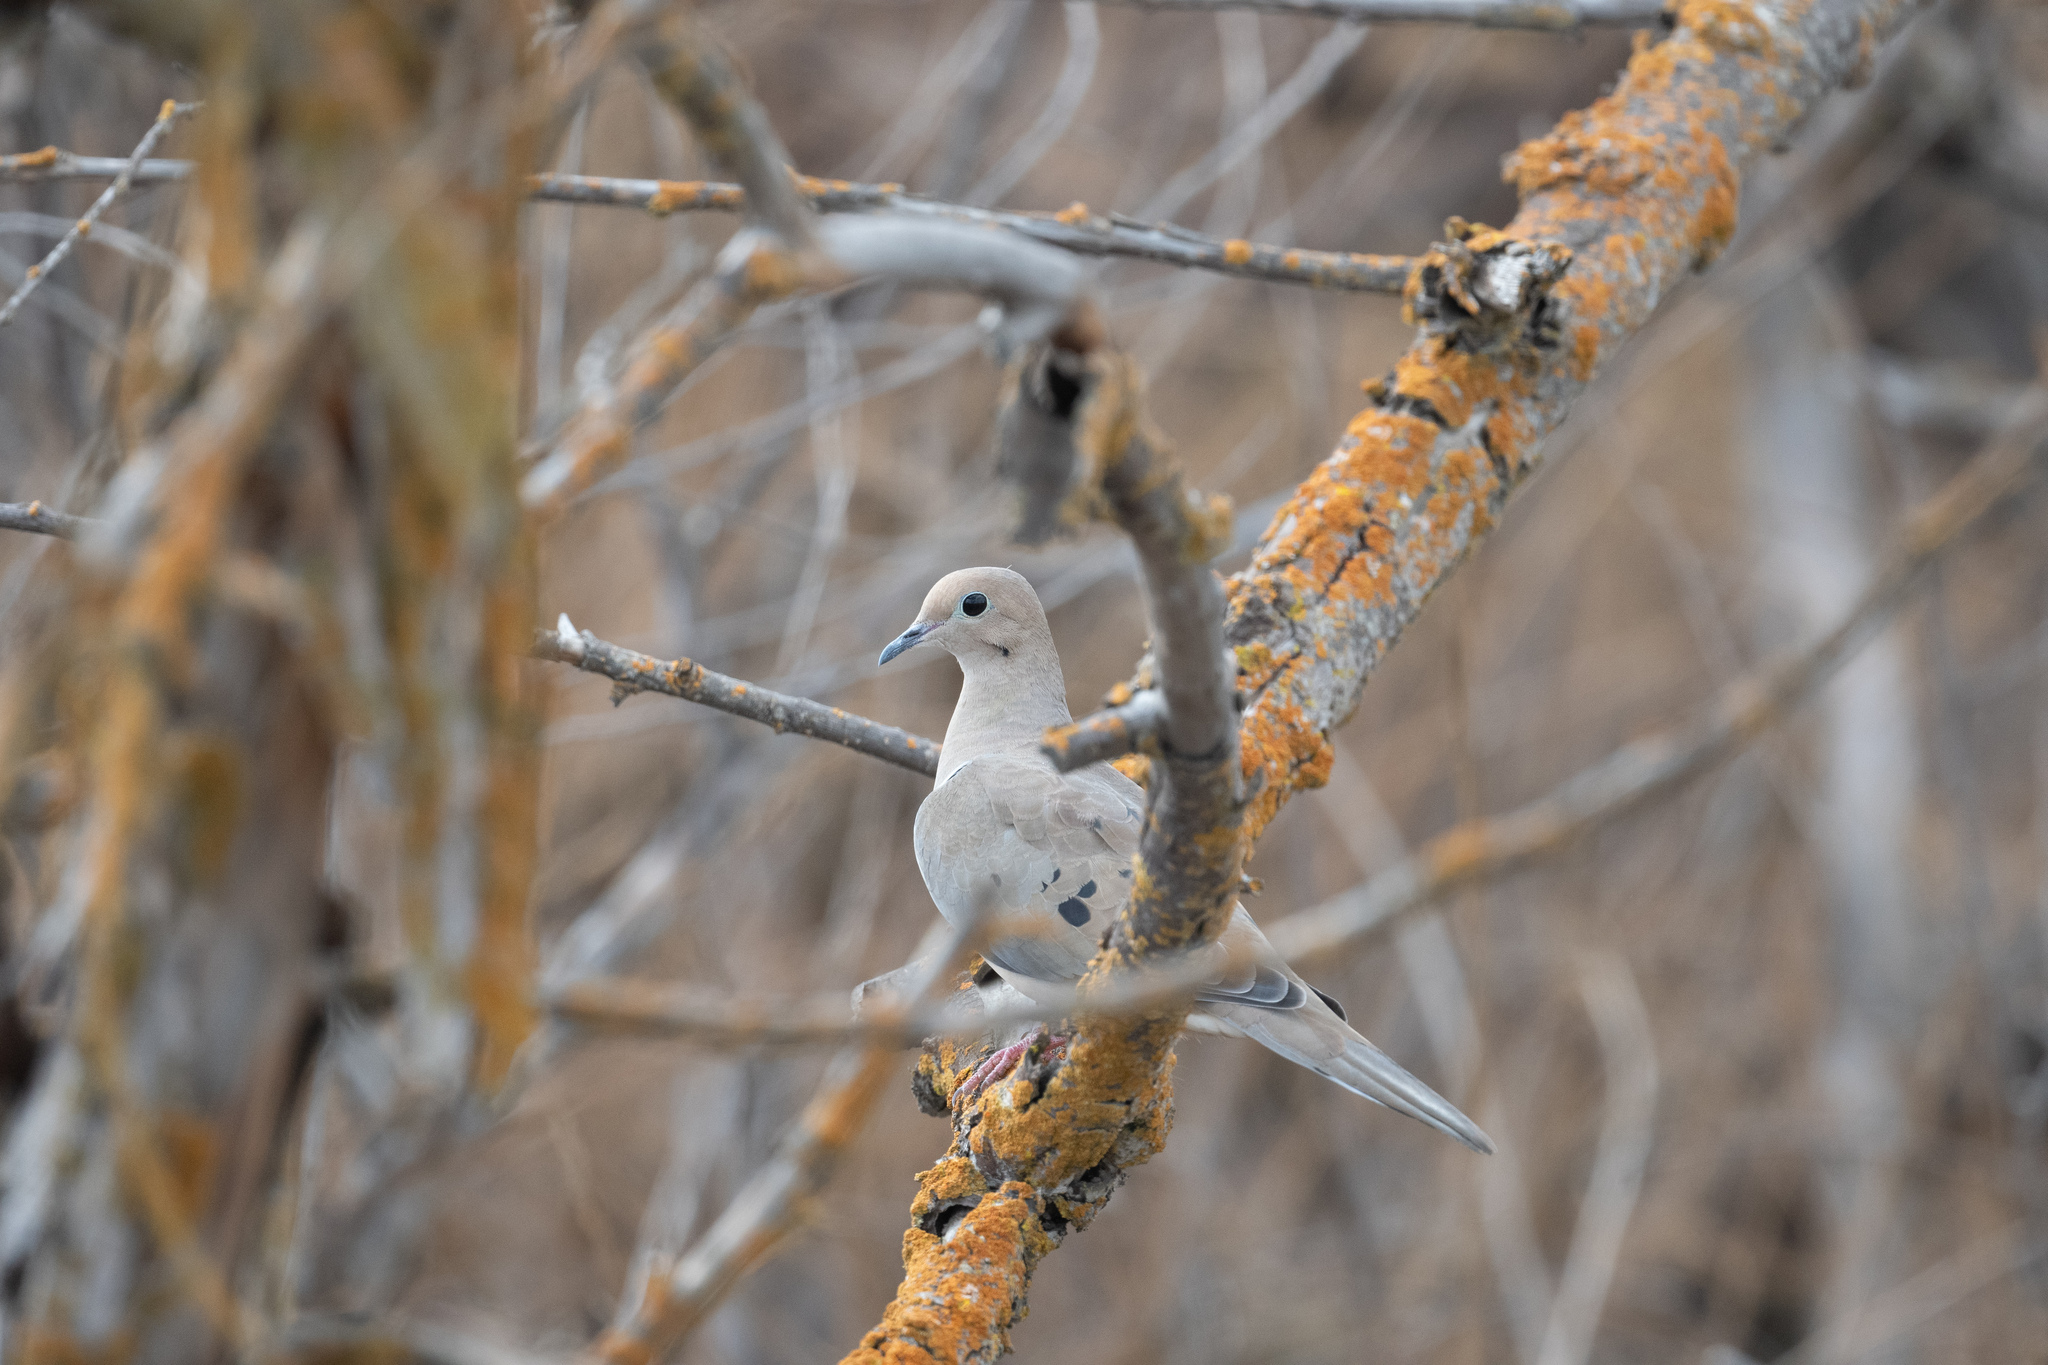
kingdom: Animalia
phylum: Chordata
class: Aves
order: Columbiformes
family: Columbidae
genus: Zenaida
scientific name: Zenaida macroura
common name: Mourning dove
